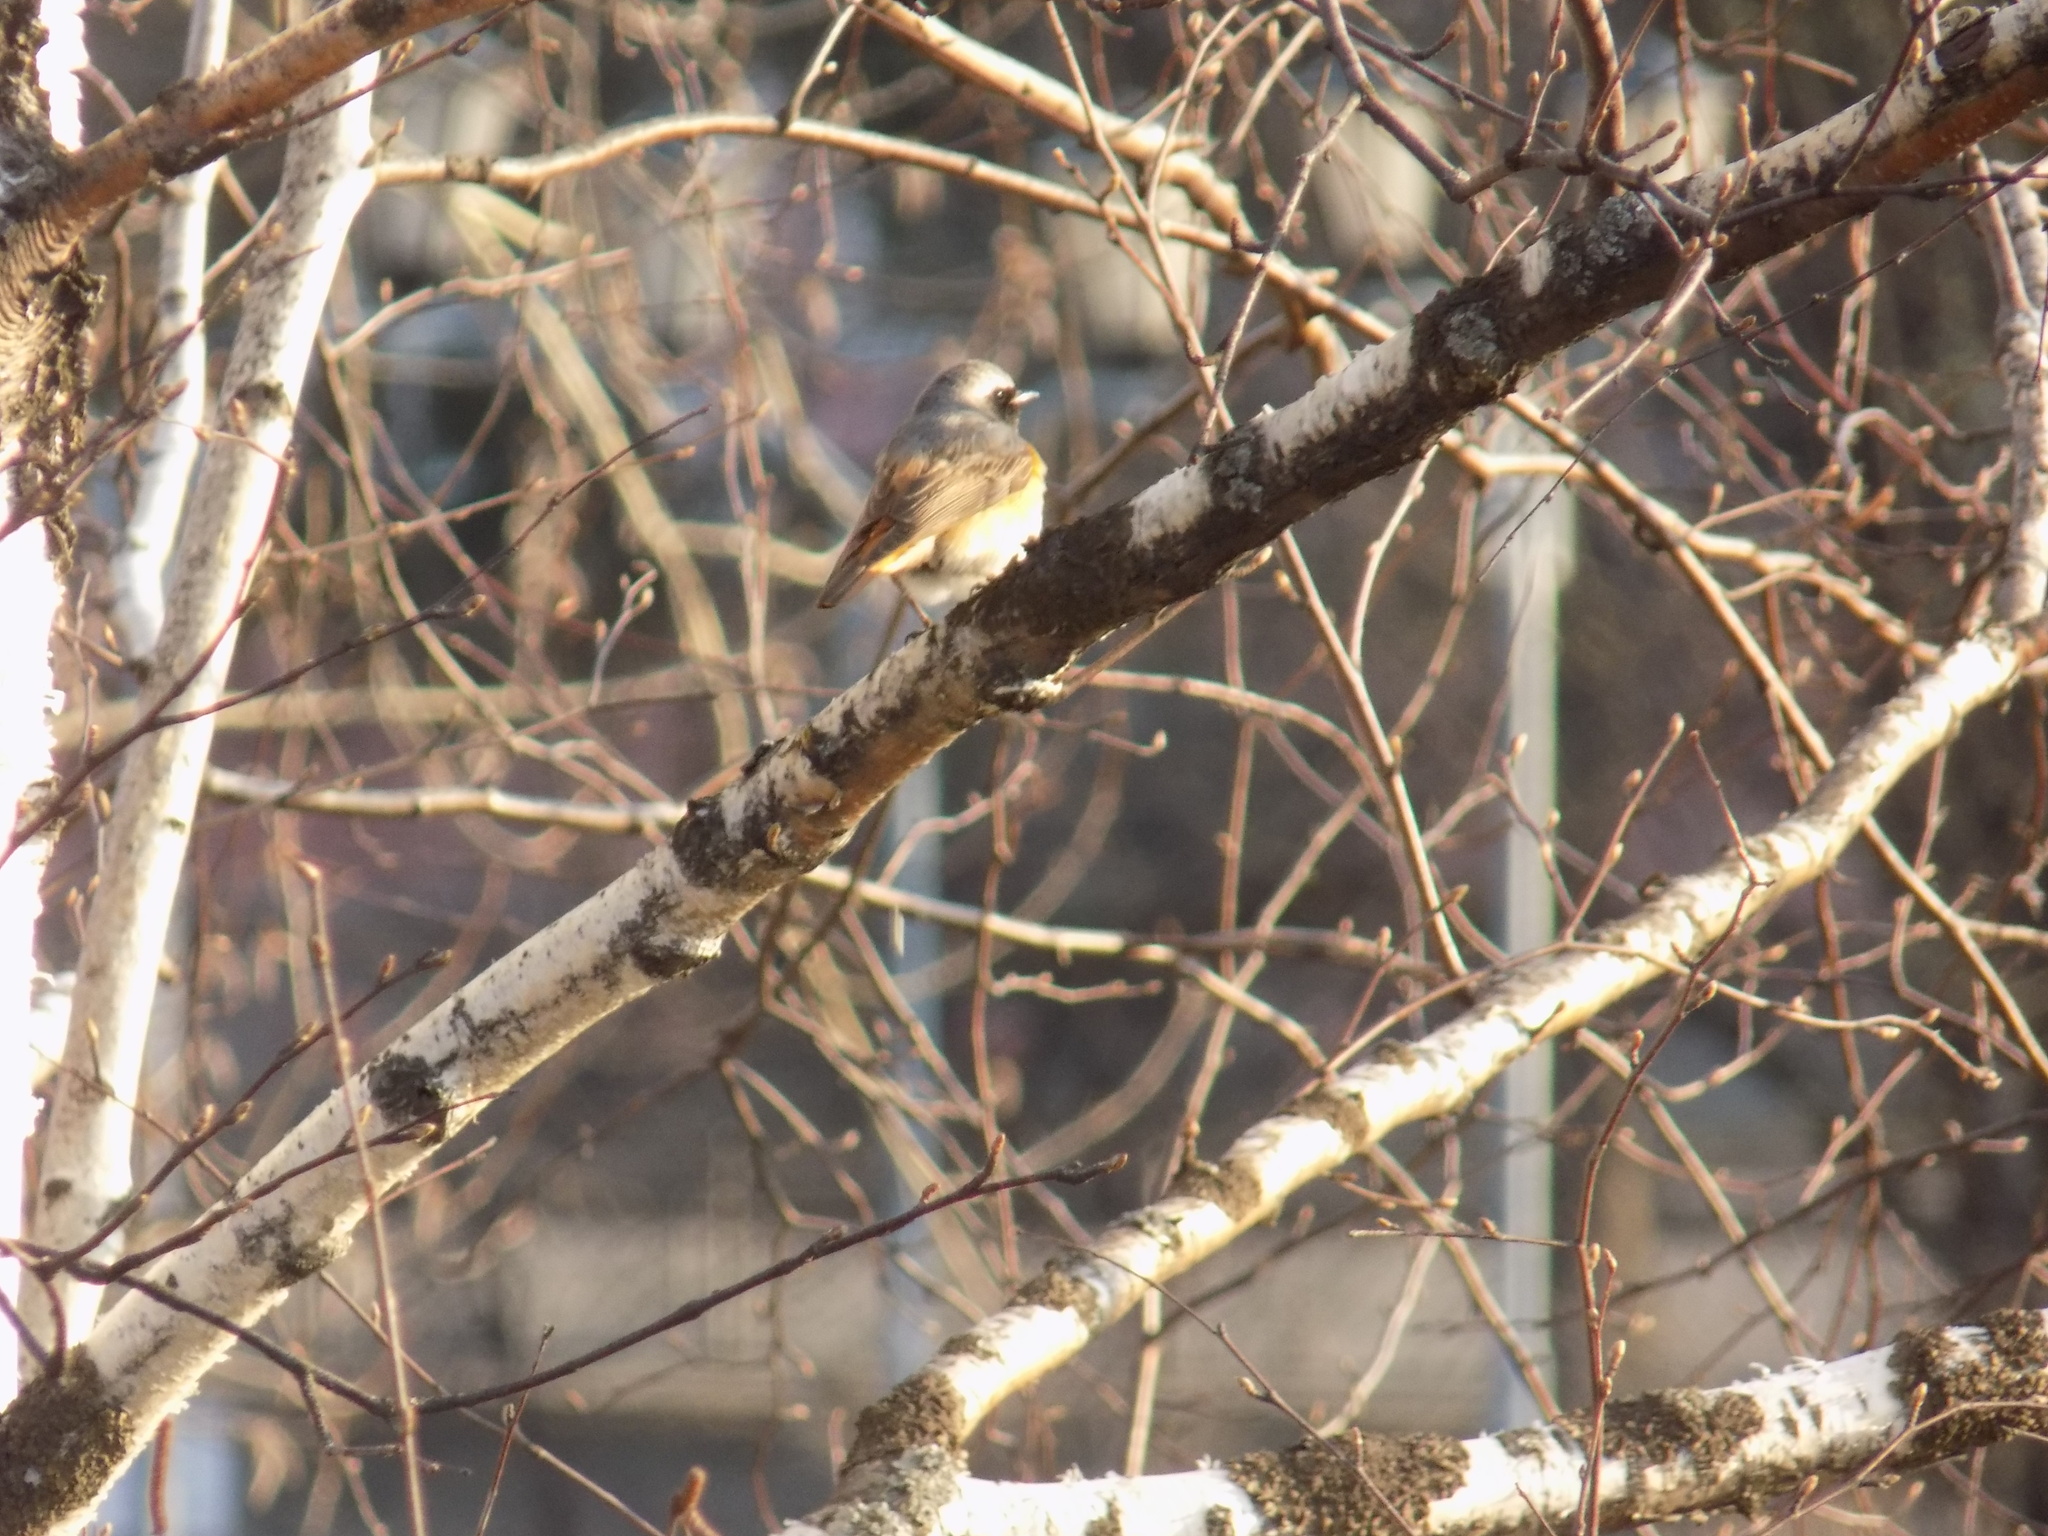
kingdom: Animalia
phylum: Chordata
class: Aves
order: Passeriformes
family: Muscicapidae
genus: Phoenicurus
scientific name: Phoenicurus phoenicurus
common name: Common redstart
